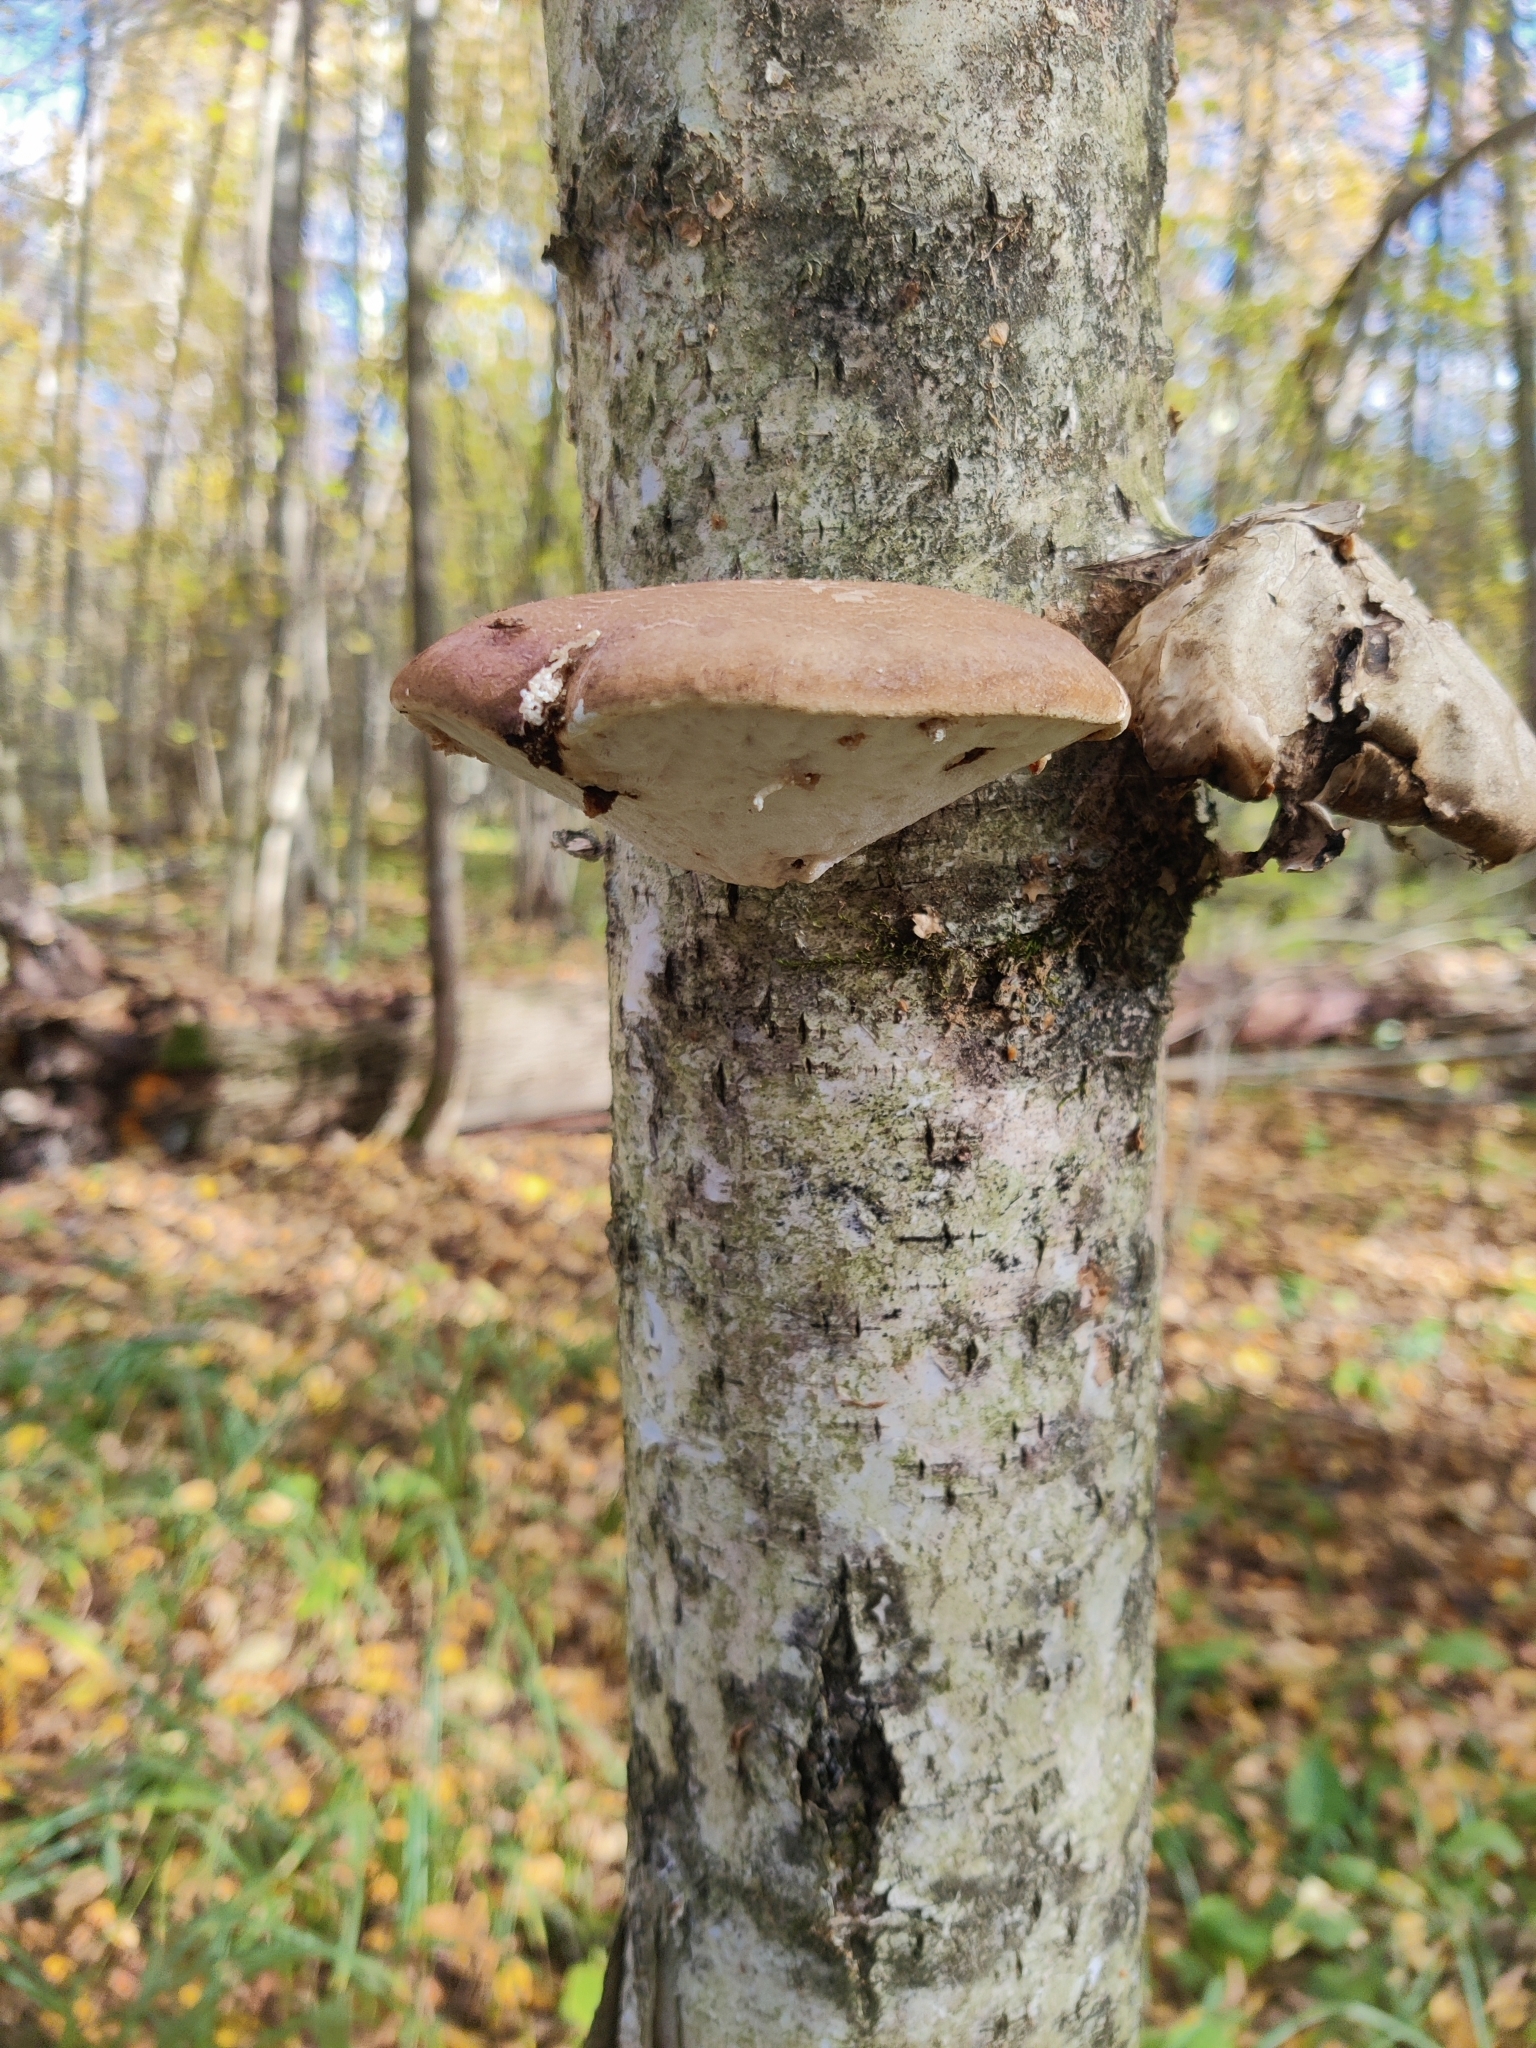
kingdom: Fungi
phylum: Basidiomycota
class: Agaricomycetes
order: Polyporales
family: Fomitopsidaceae
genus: Fomitopsis
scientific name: Fomitopsis betulina
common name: Birch polypore
